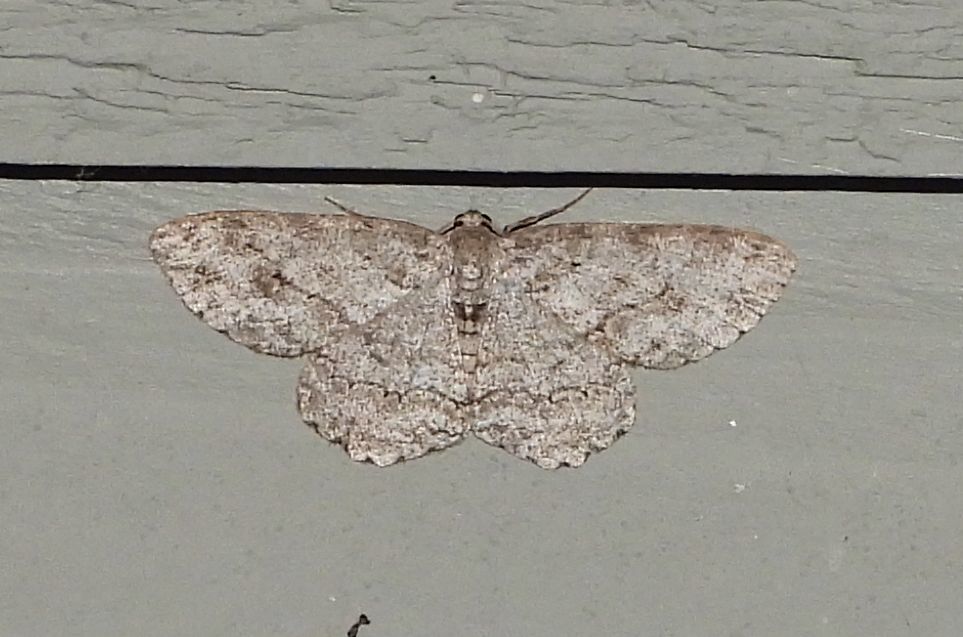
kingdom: Animalia
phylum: Arthropoda
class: Insecta
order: Lepidoptera
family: Geometridae
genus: Ectropis
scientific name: Ectropis crepuscularia
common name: Engrailed
